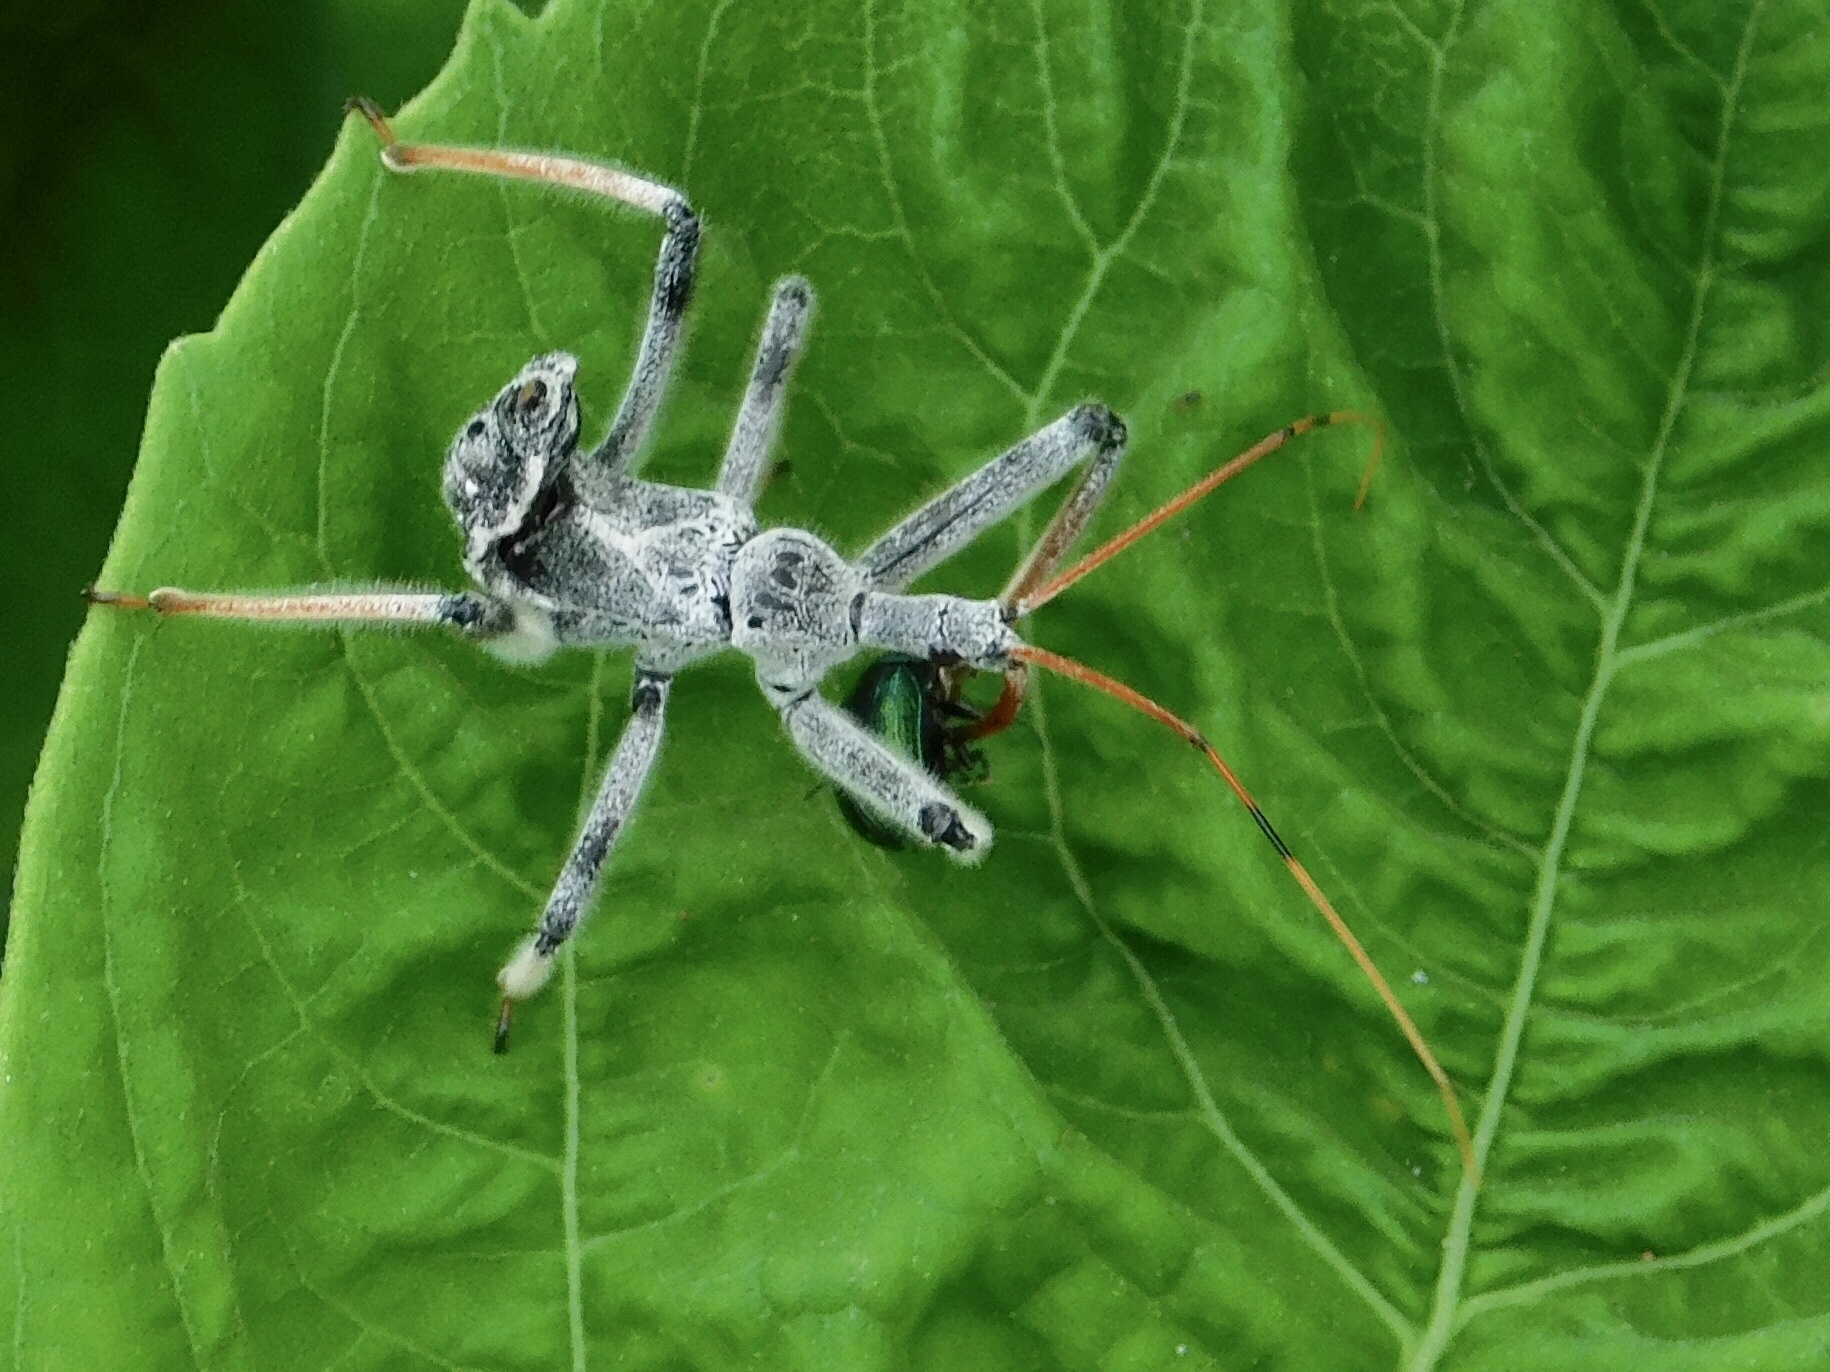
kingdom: Animalia
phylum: Arthropoda
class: Insecta
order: Hemiptera
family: Reduviidae
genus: Arilus
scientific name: Arilus cristatus
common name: North american wheel bug
